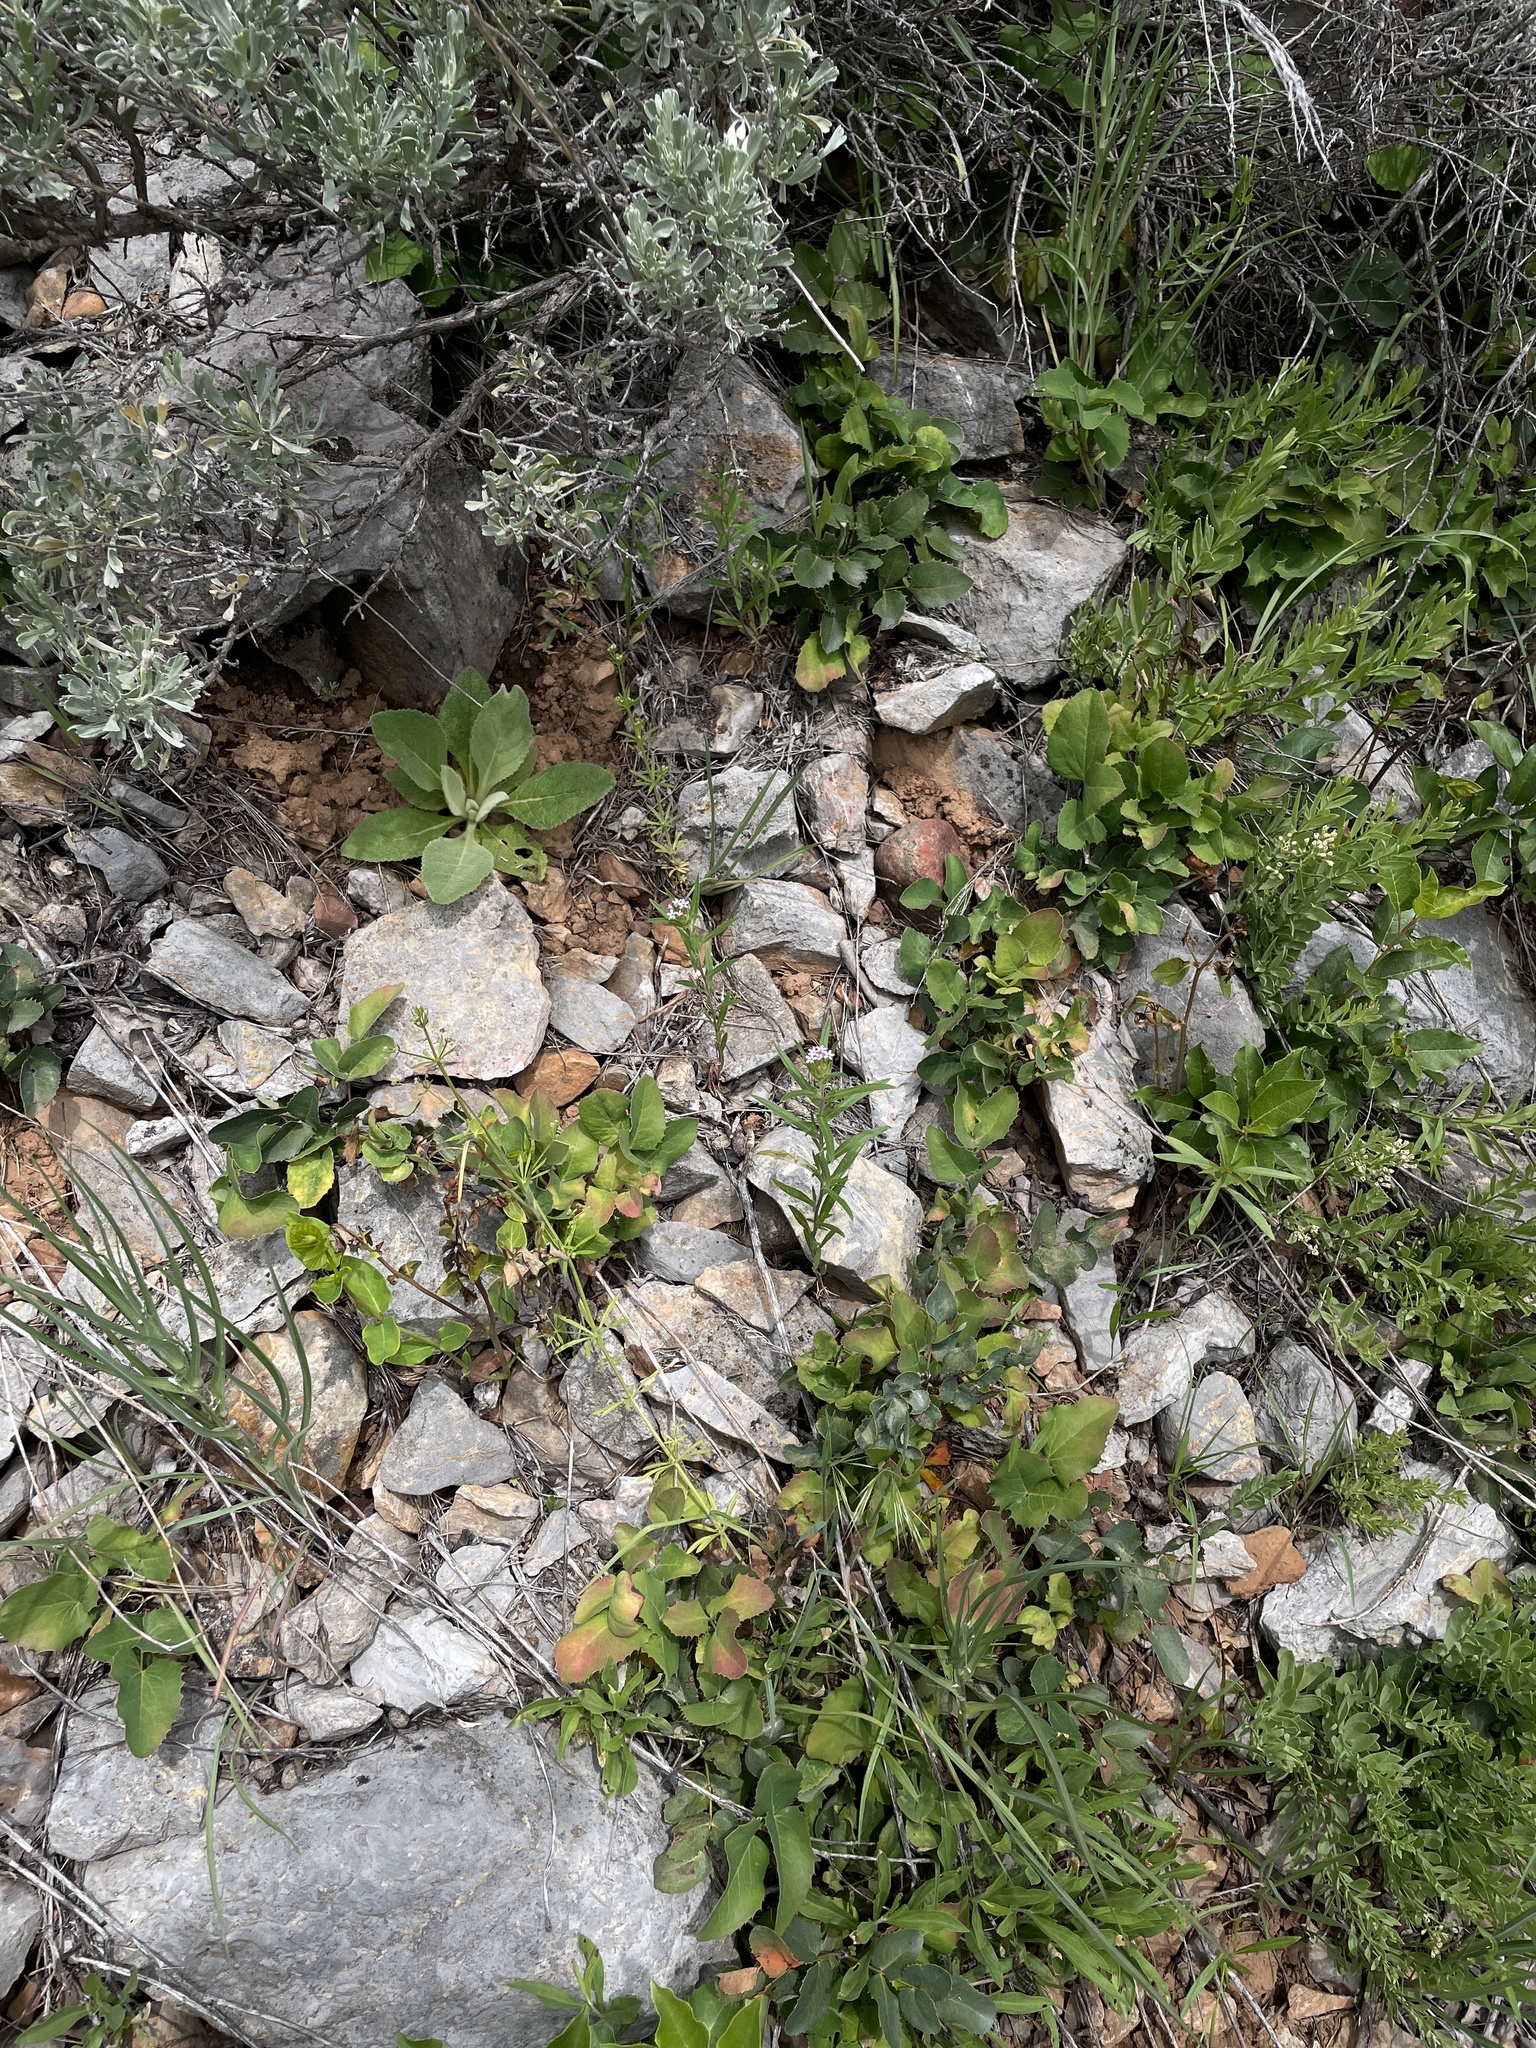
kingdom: Plantae
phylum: Tracheophyta
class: Magnoliopsida
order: Ericales
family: Polemoniaceae
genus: Collomia
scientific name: Collomia linearis
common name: Tiny trumpet
